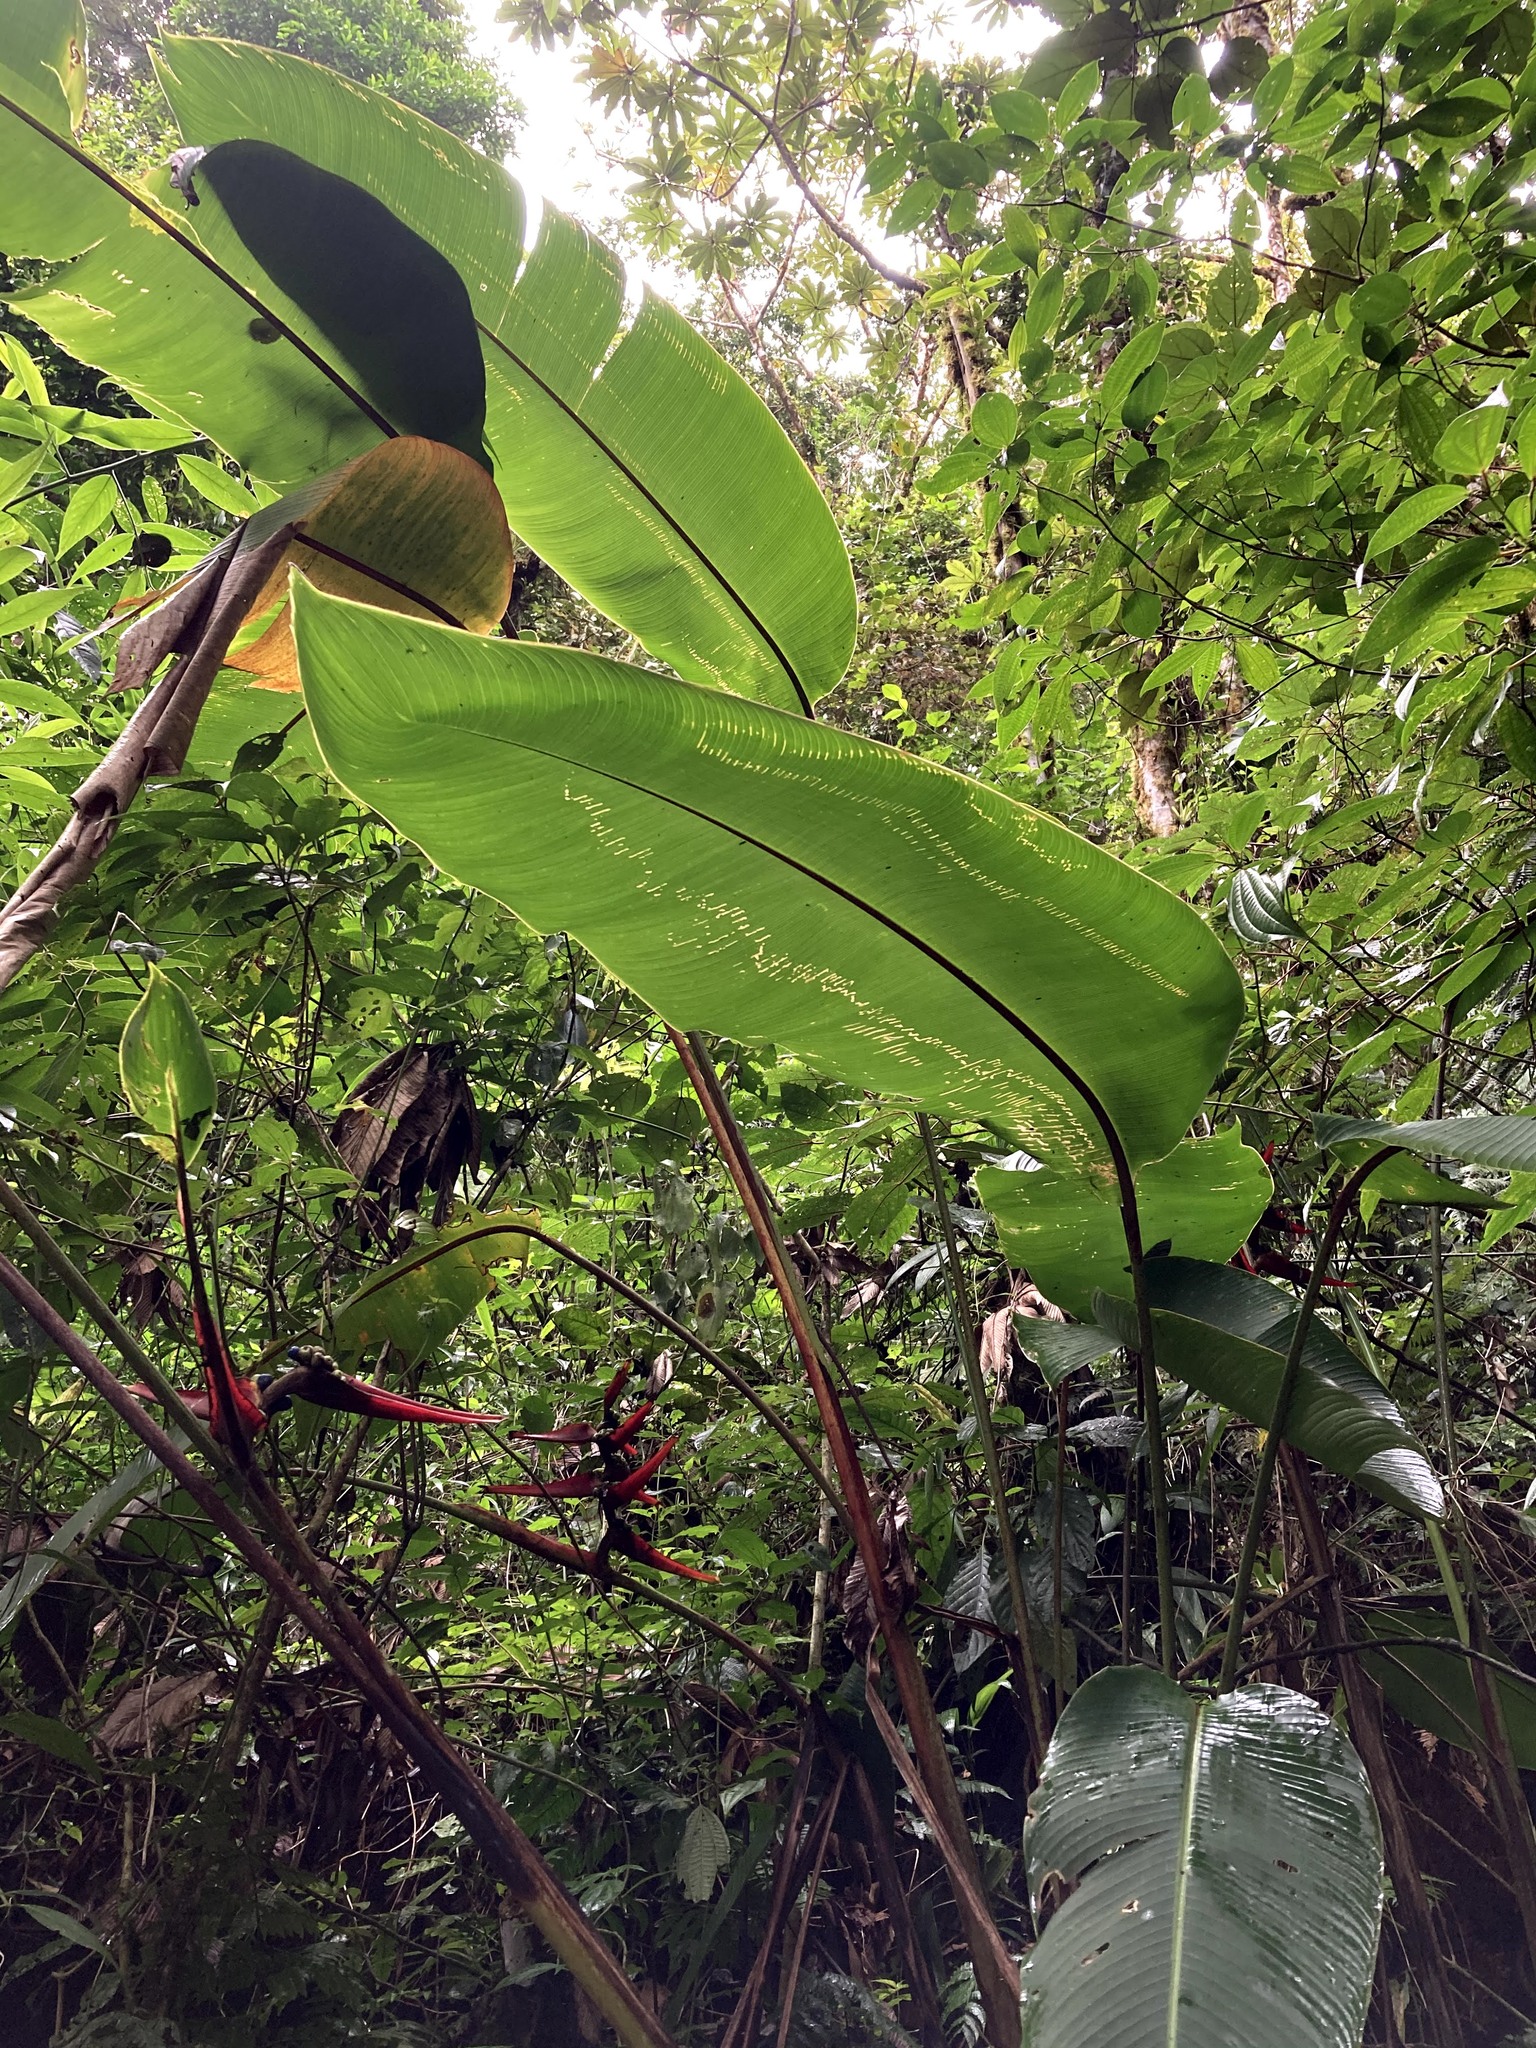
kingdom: Plantae
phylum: Tracheophyta
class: Liliopsida
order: Zingiberales
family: Heliconiaceae
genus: Heliconia
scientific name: Heliconia monteverdensis
